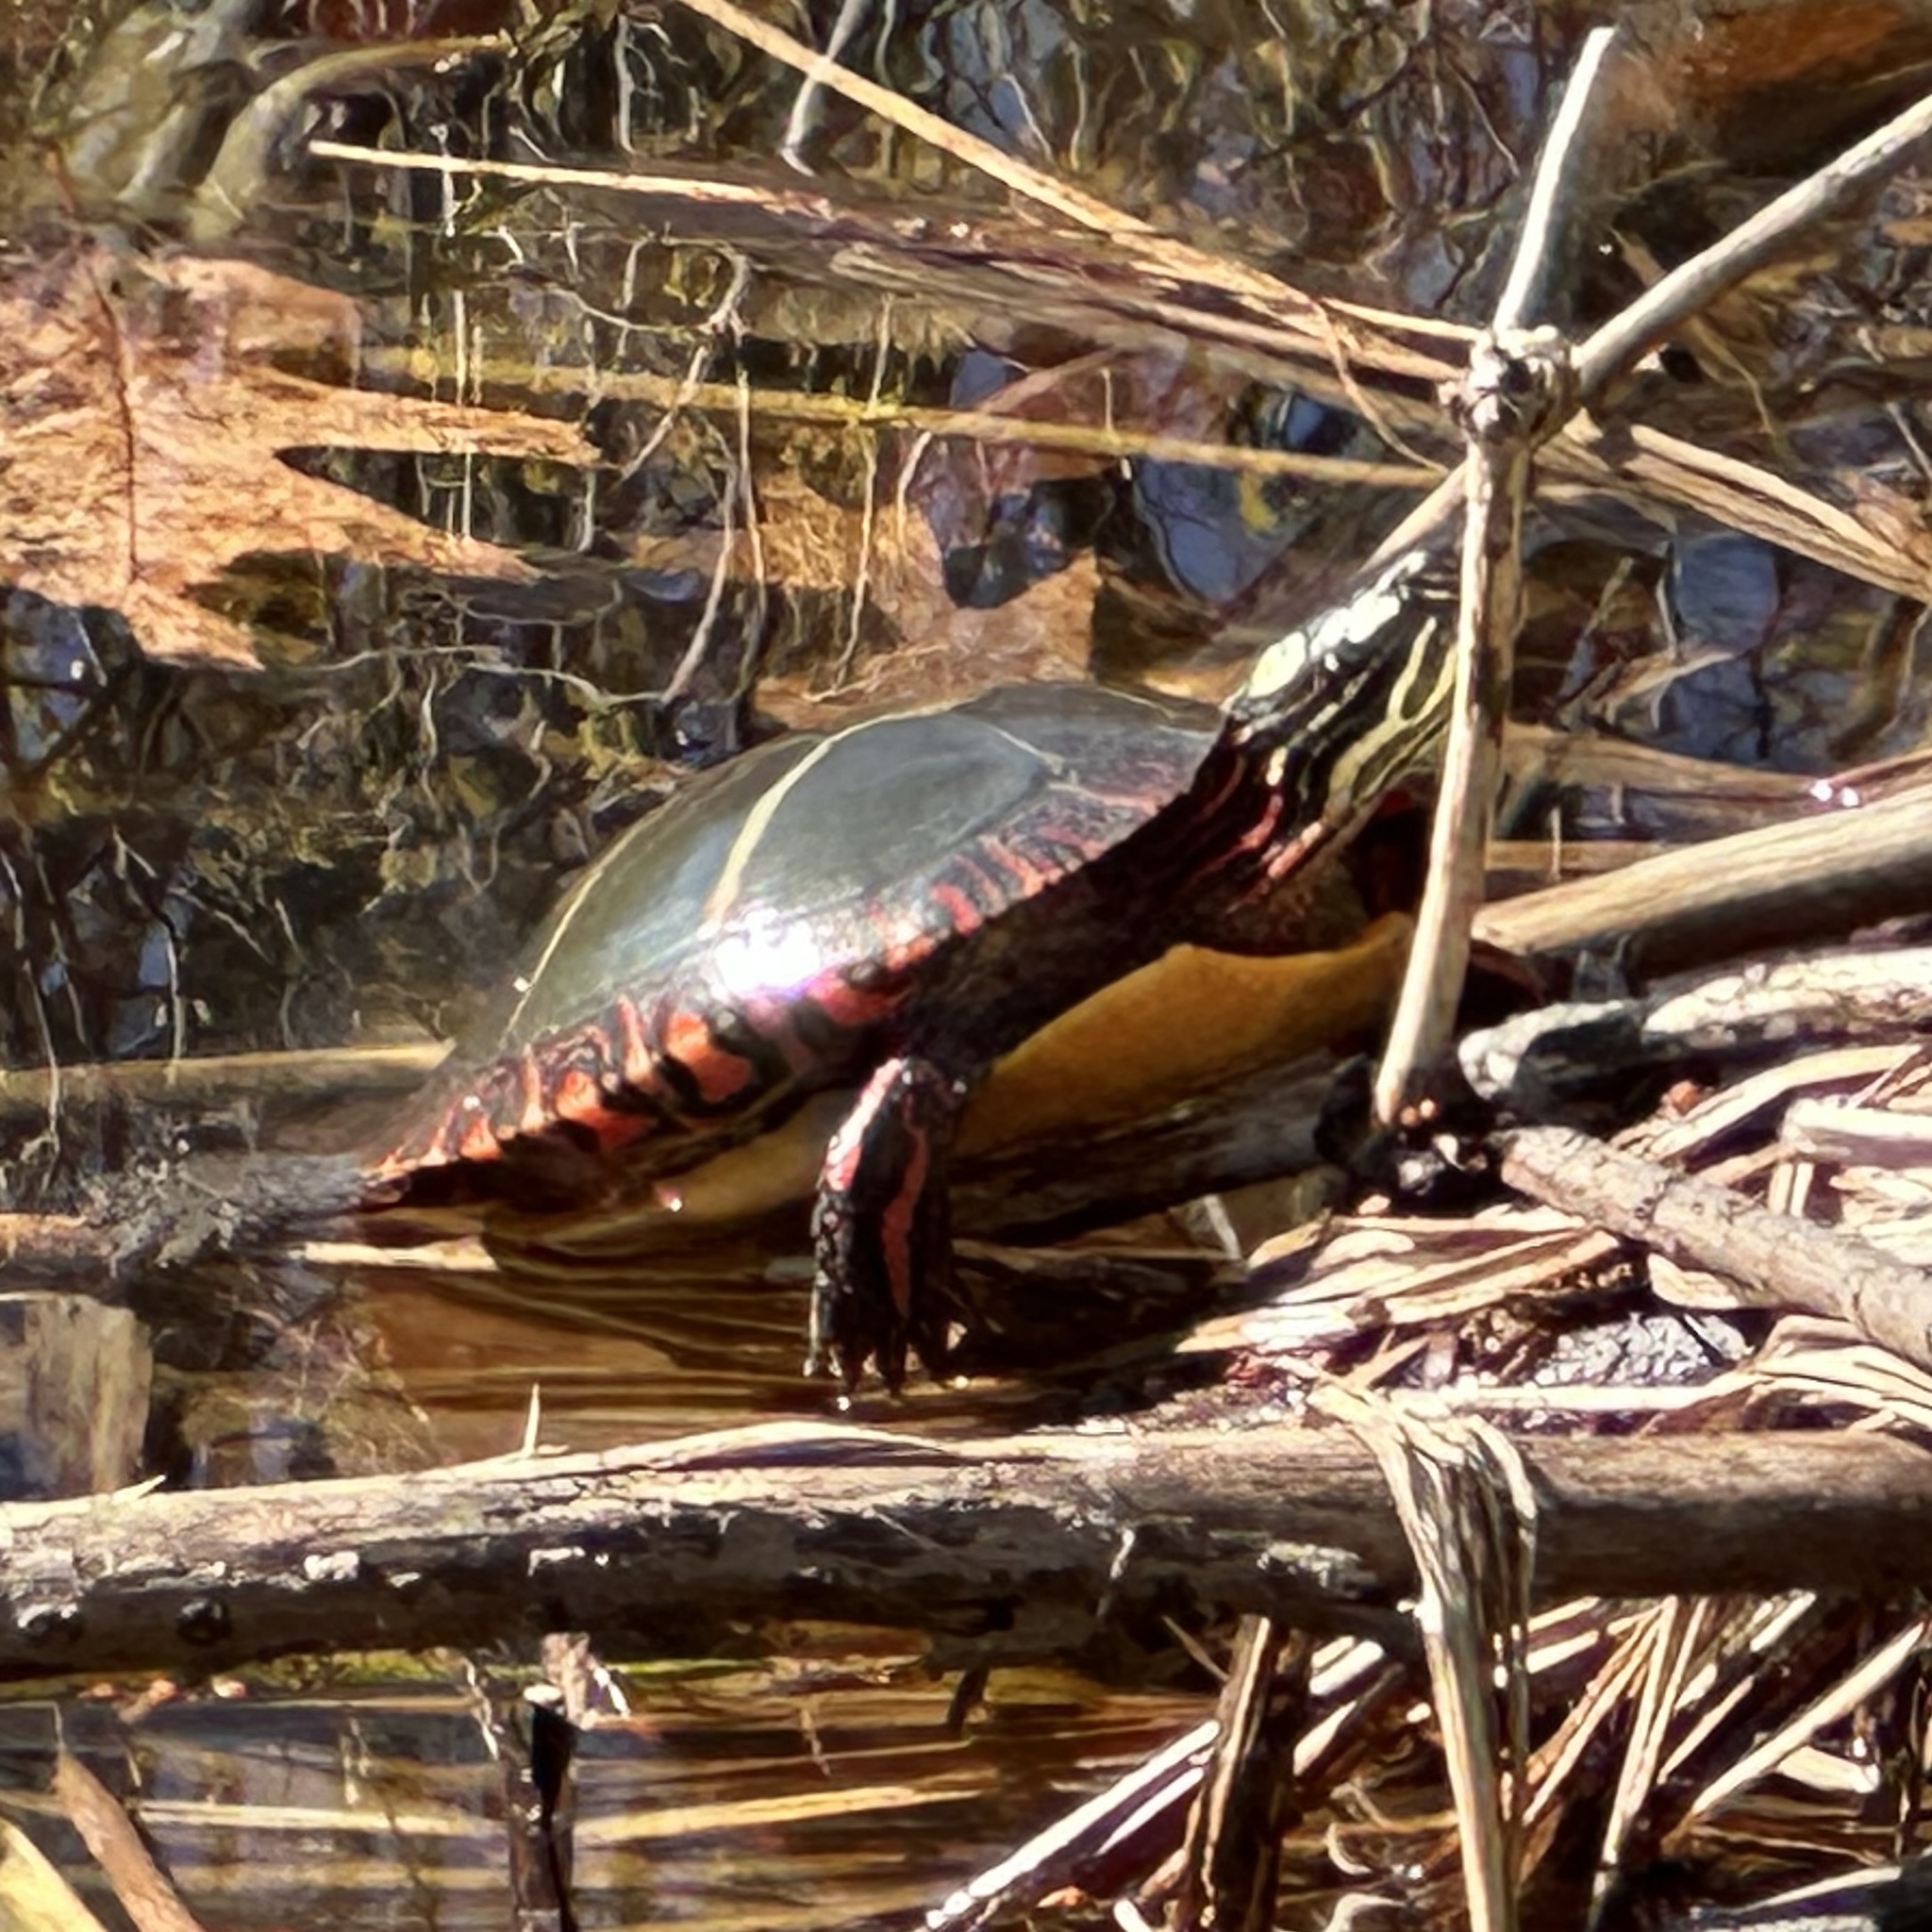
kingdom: Animalia
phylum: Chordata
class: Testudines
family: Emydidae
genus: Chrysemys
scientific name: Chrysemys picta
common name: Painted turtle
